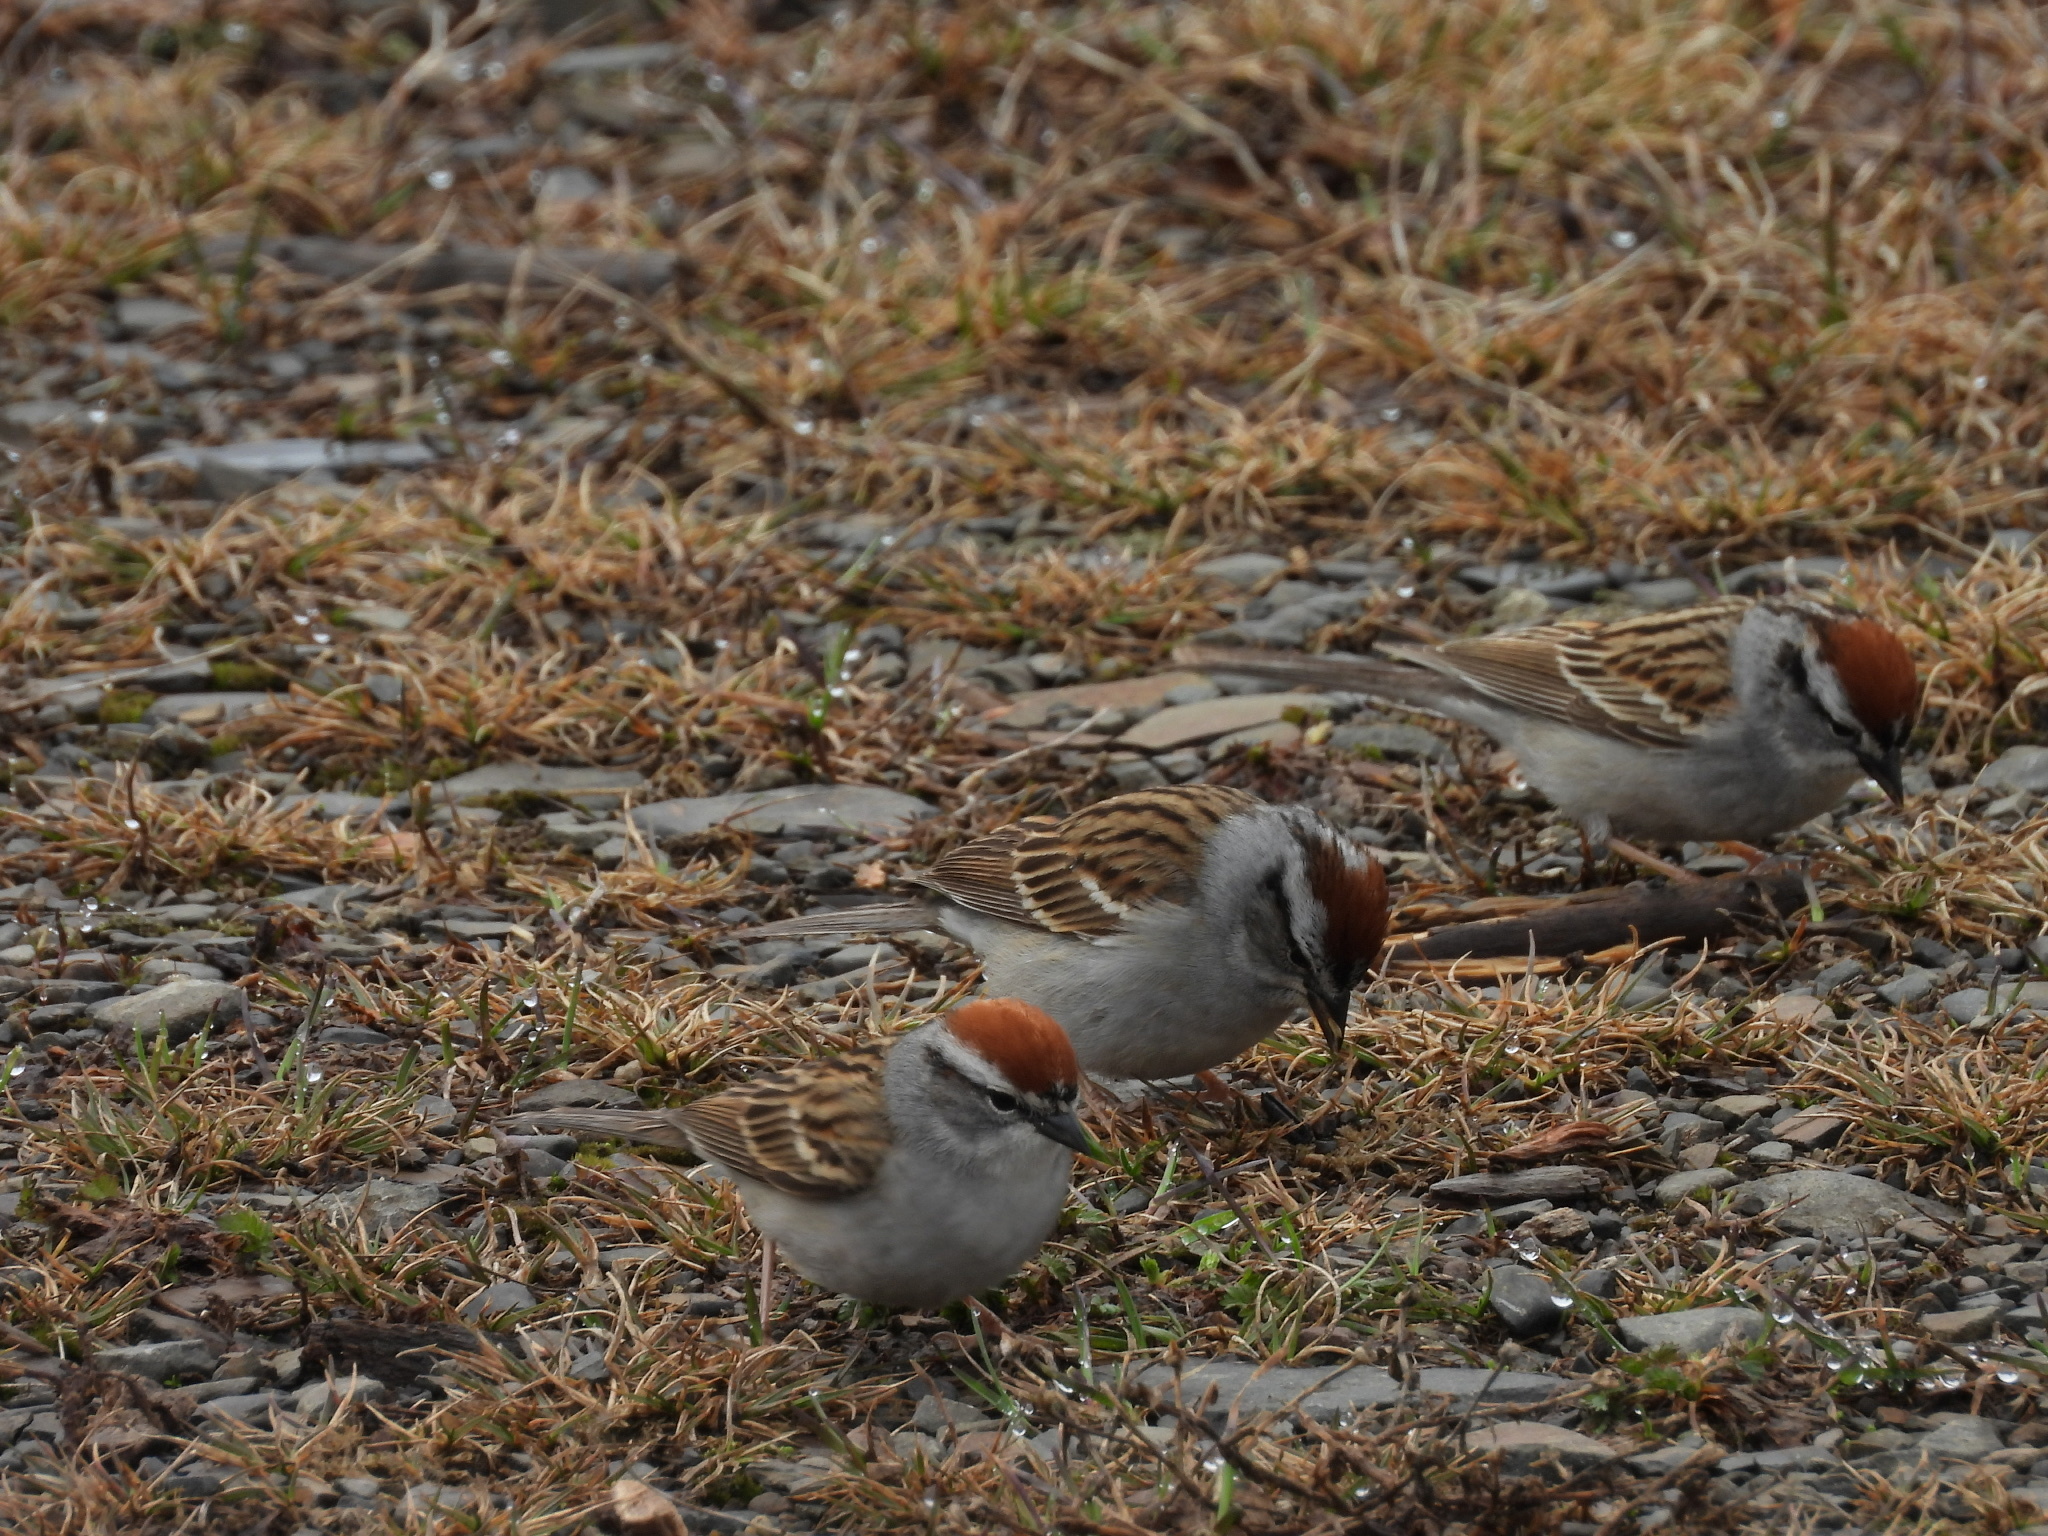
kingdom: Animalia
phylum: Chordata
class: Aves
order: Passeriformes
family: Passerellidae
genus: Spizella
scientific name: Spizella passerina
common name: Chipping sparrow
